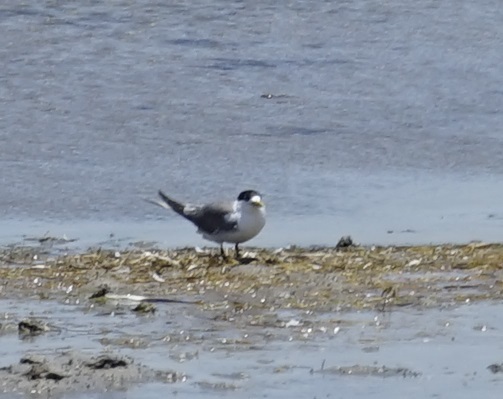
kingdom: Animalia
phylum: Chordata
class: Aves
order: Charadriiformes
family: Laridae
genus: Thalasseus
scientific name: Thalasseus bergii
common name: Greater crested tern
